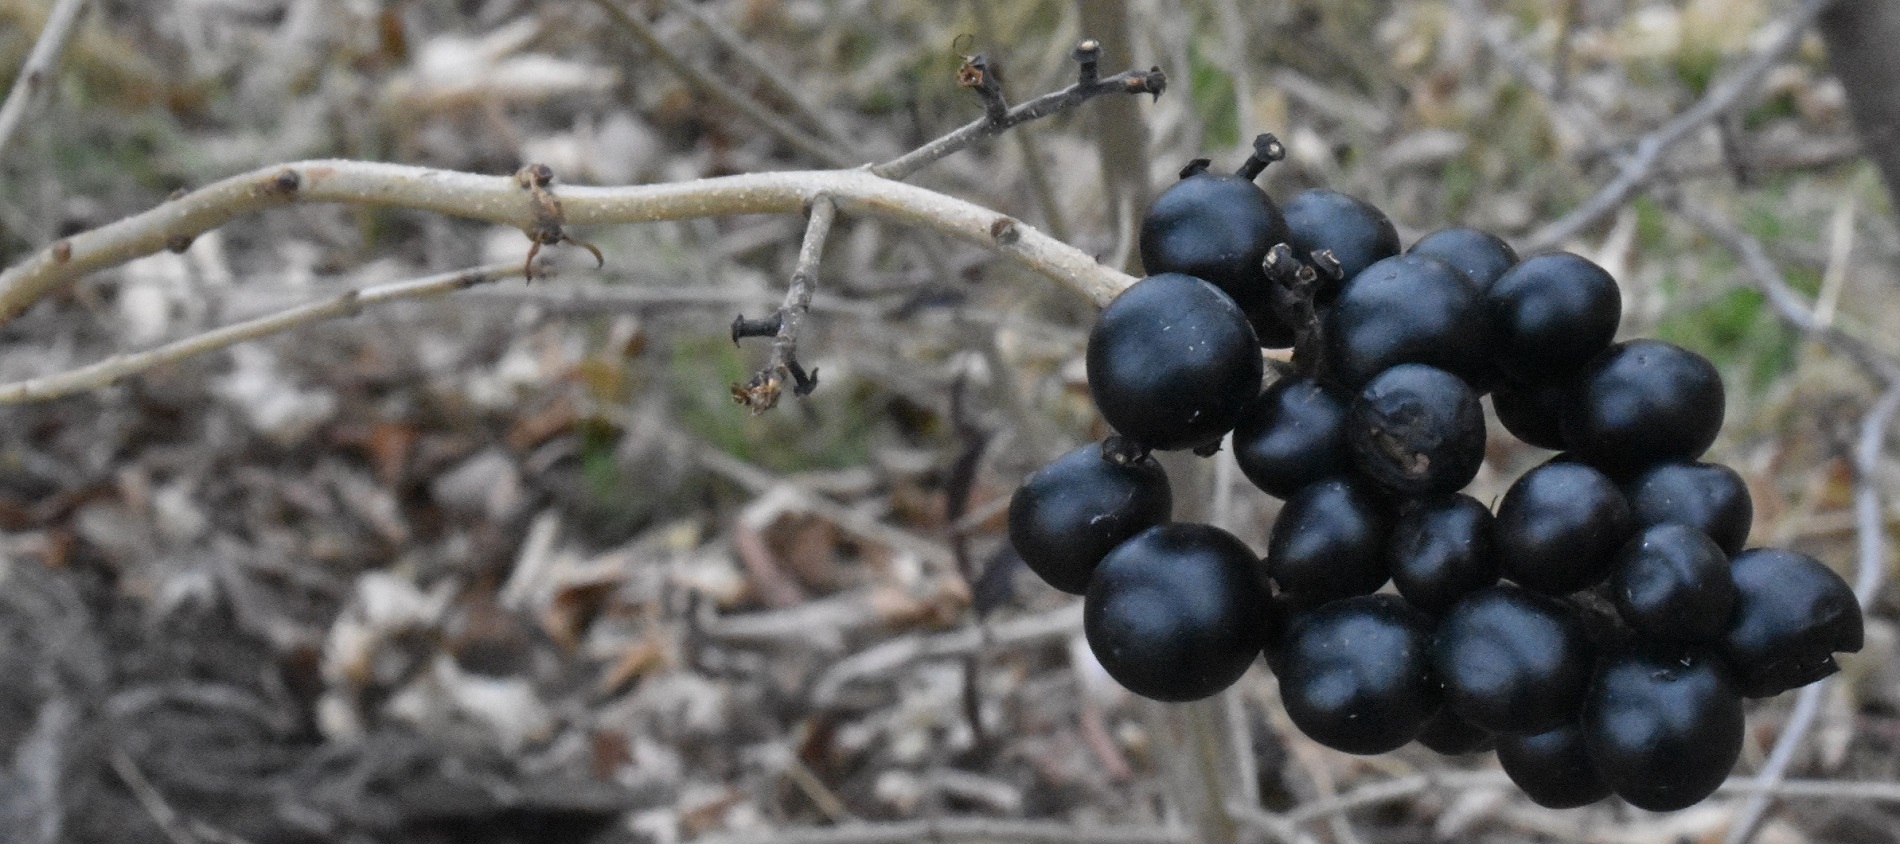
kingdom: Plantae
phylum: Tracheophyta
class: Magnoliopsida
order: Lamiales
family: Oleaceae
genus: Ligustrum
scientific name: Ligustrum vulgare
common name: Wild privet
